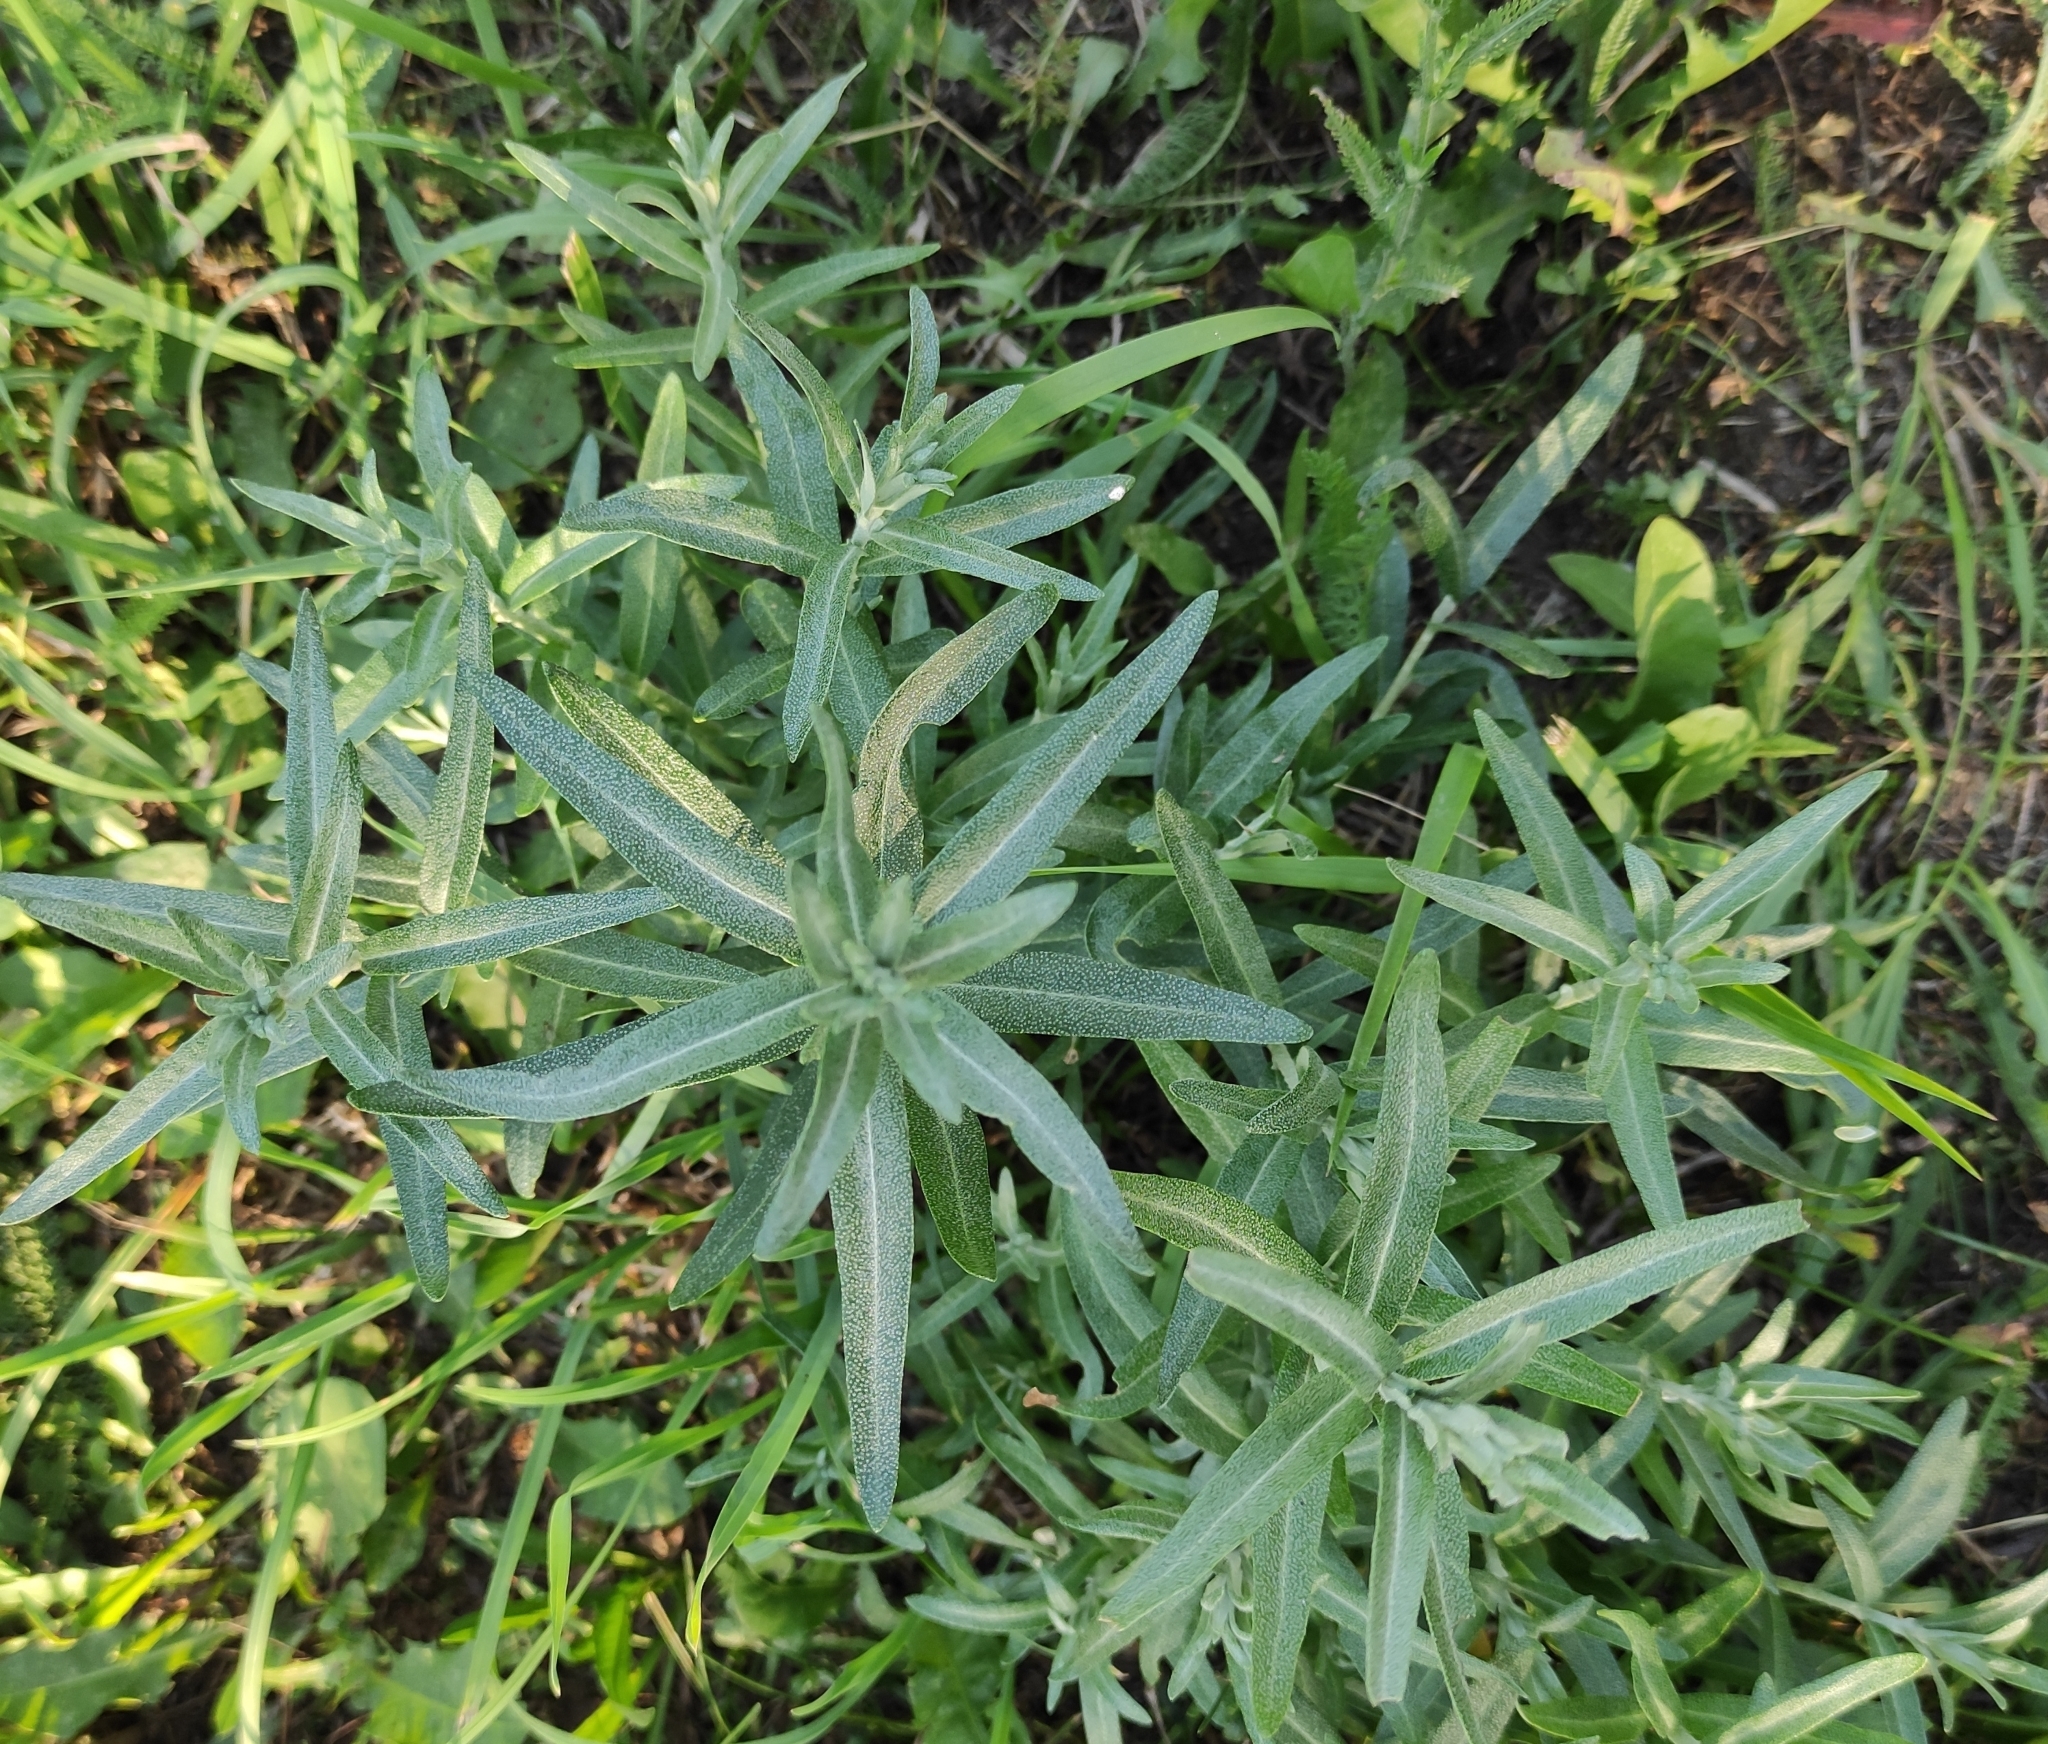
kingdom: Plantae
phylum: Tracheophyta
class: Magnoliopsida
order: Rosales
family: Elaeagnaceae
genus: Hippophae
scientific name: Hippophae rhamnoides
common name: Sea-buckthorn
